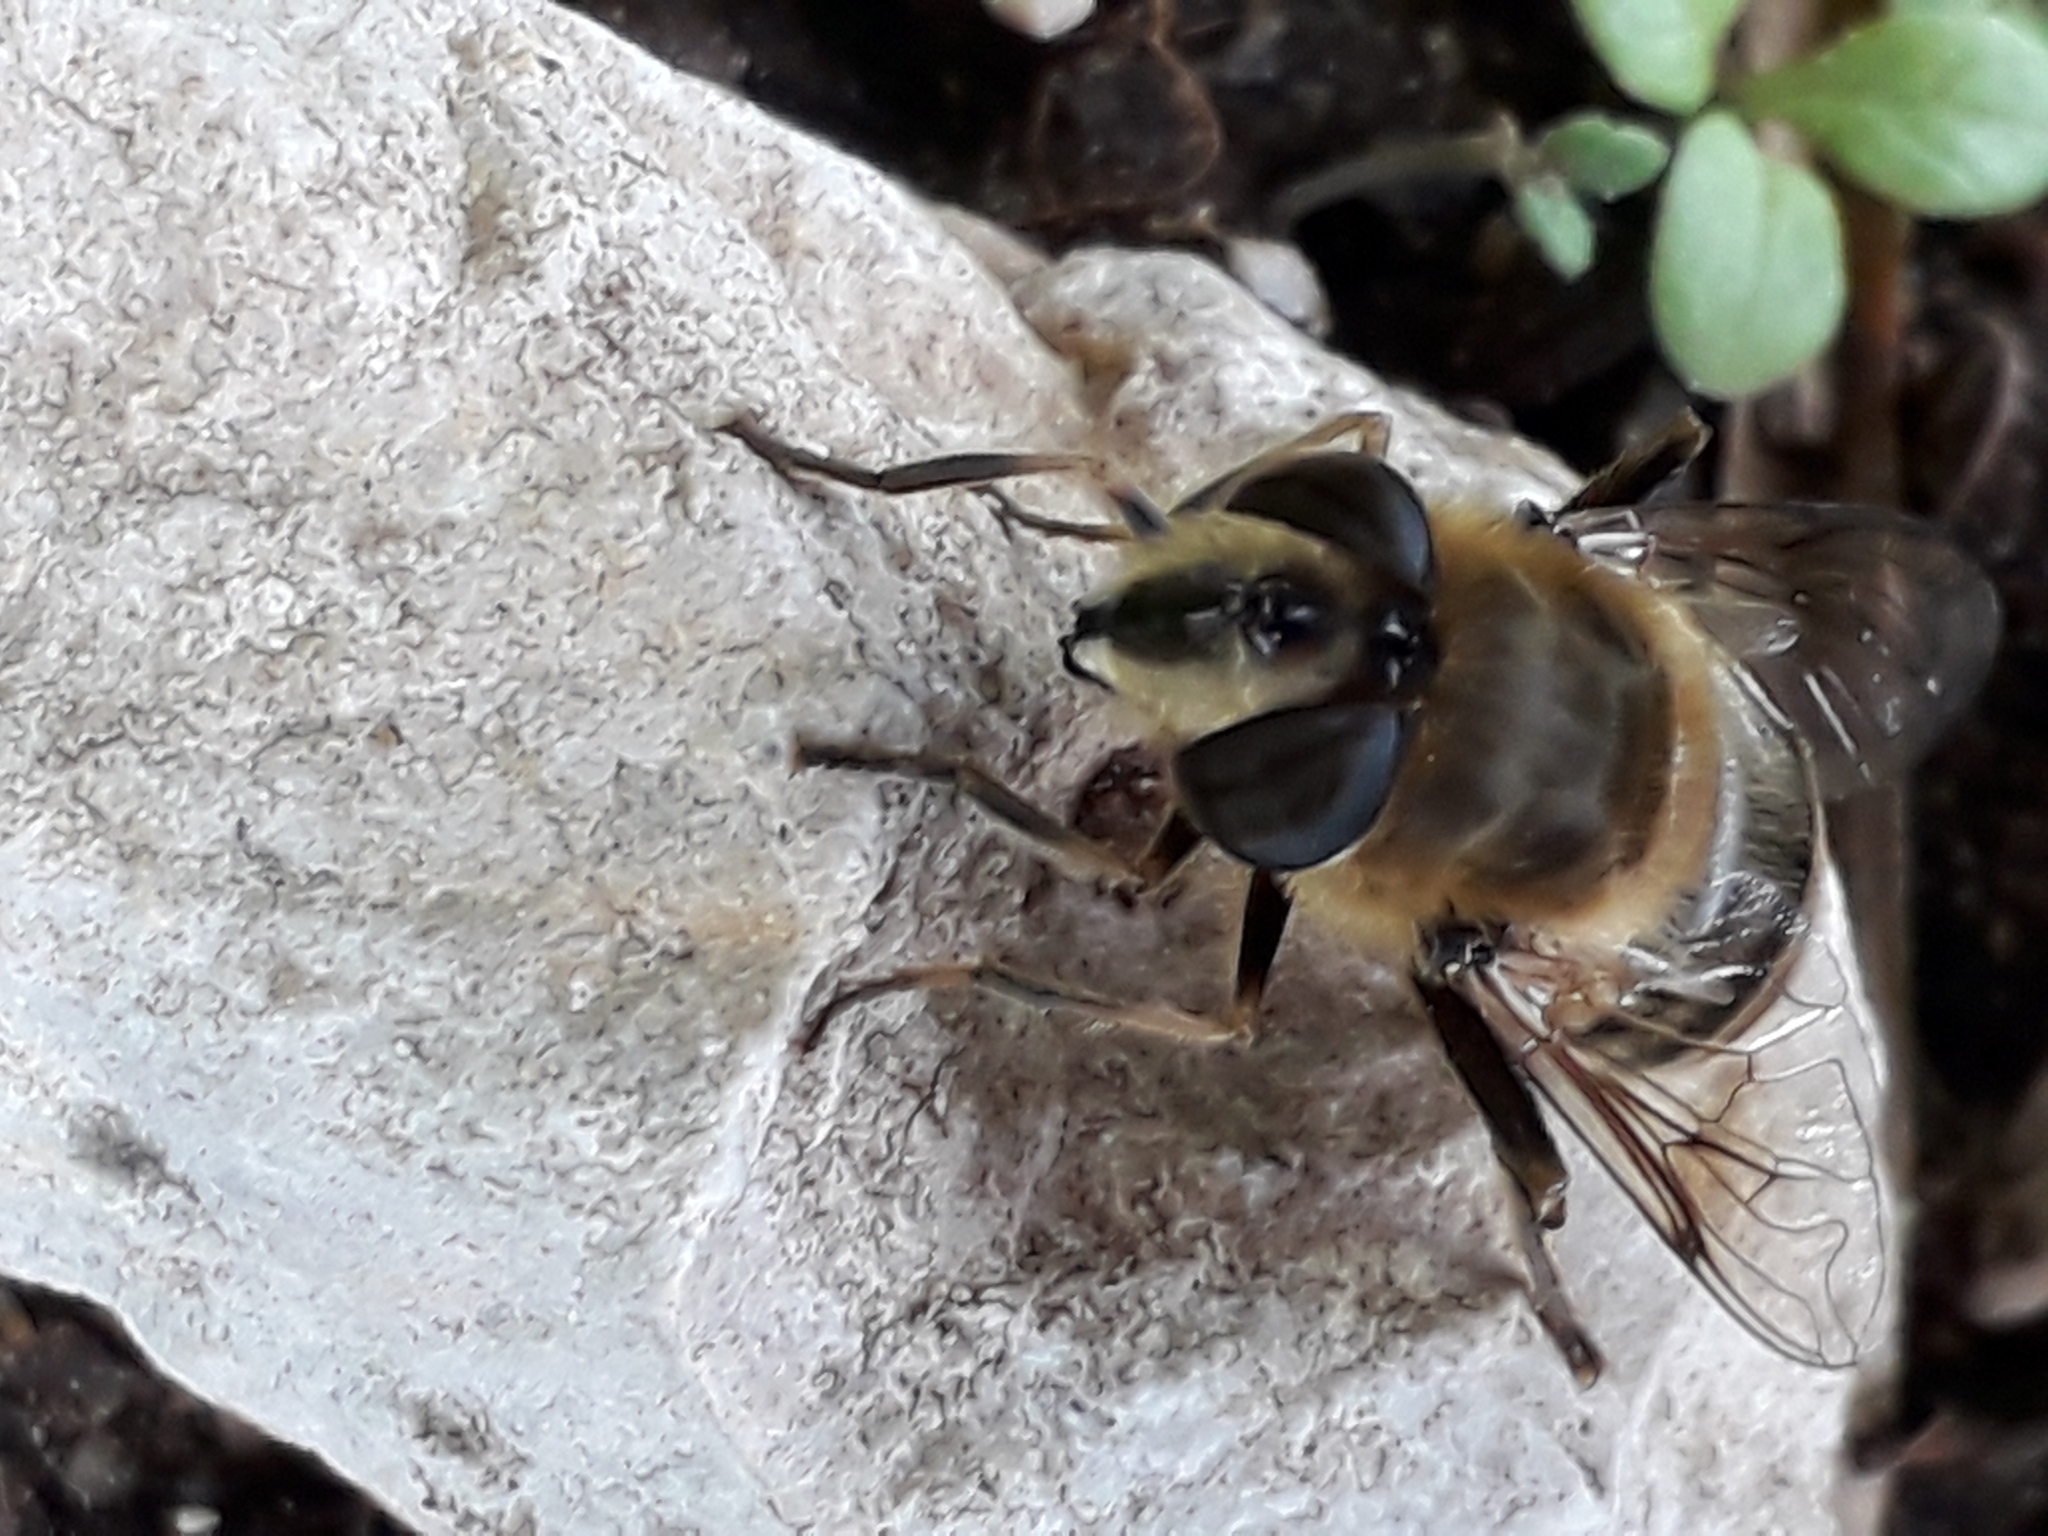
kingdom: Animalia
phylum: Arthropoda
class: Insecta
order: Diptera
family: Syrphidae
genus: Eristalis
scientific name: Eristalis tenax
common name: Drone fly
